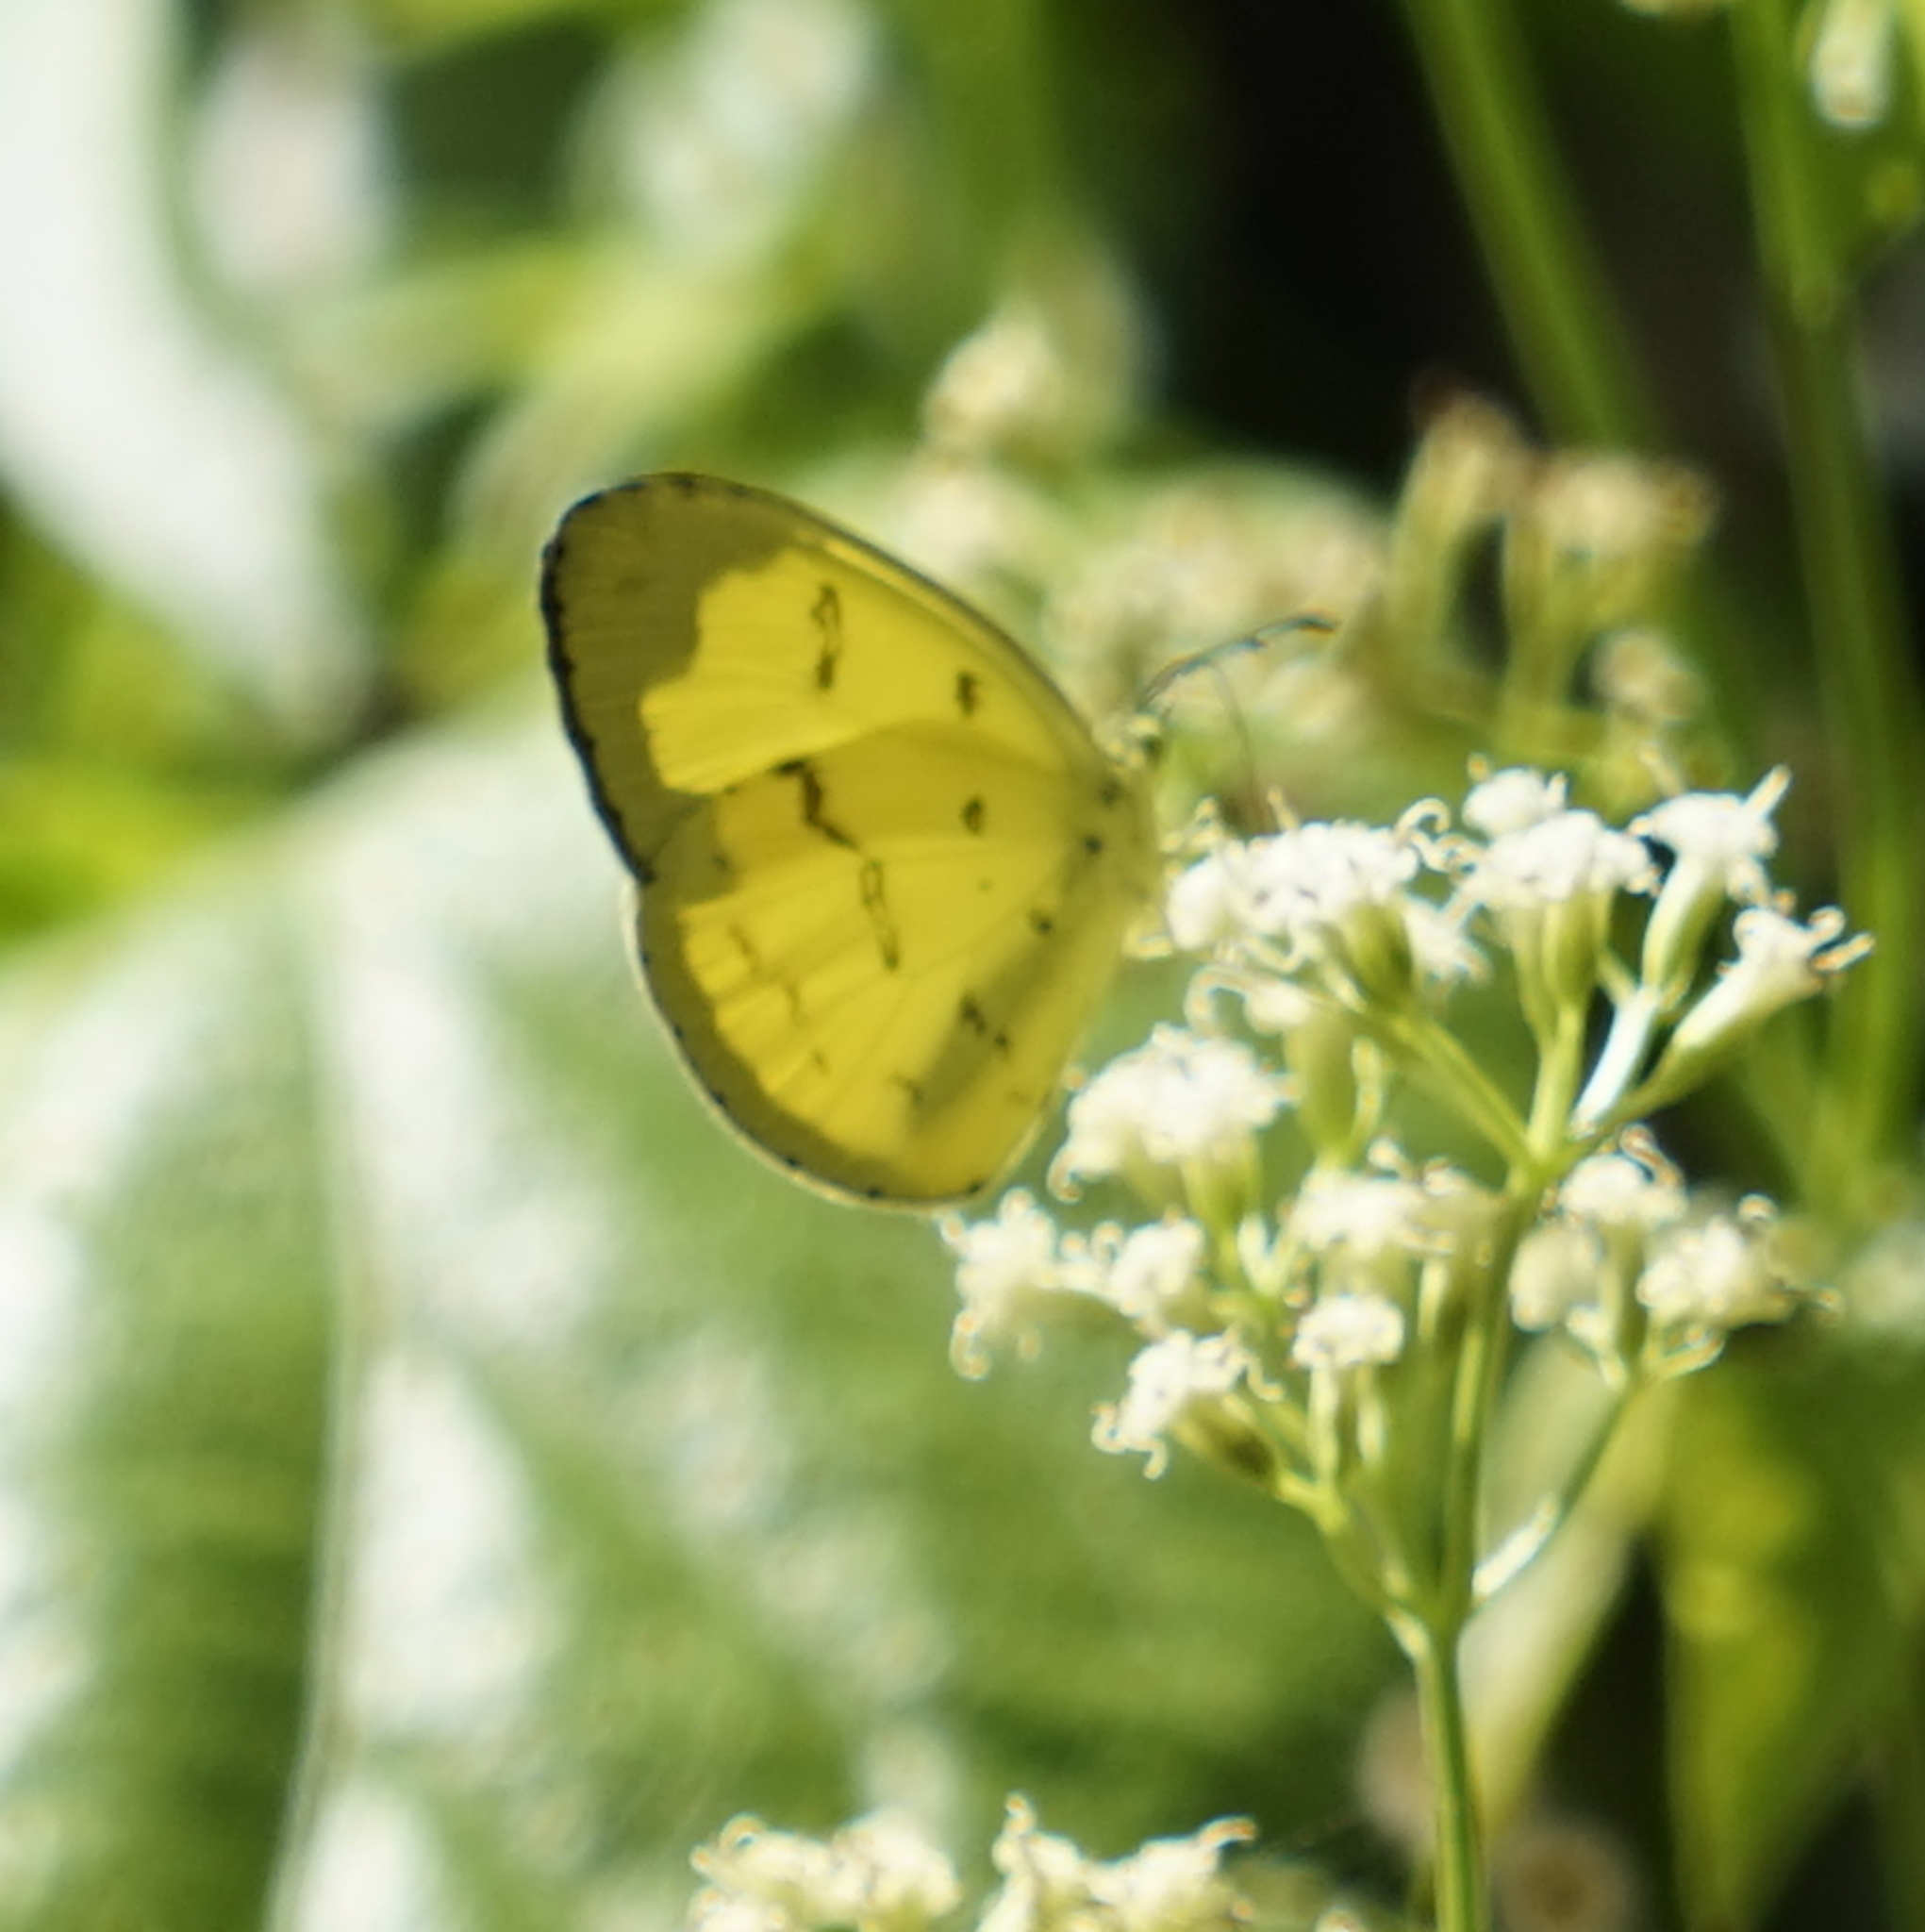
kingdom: Animalia
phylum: Arthropoda
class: Insecta
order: Lepidoptera
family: Pieridae
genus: Eurema
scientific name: Eurema andersoni
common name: One-spot yellow grass
